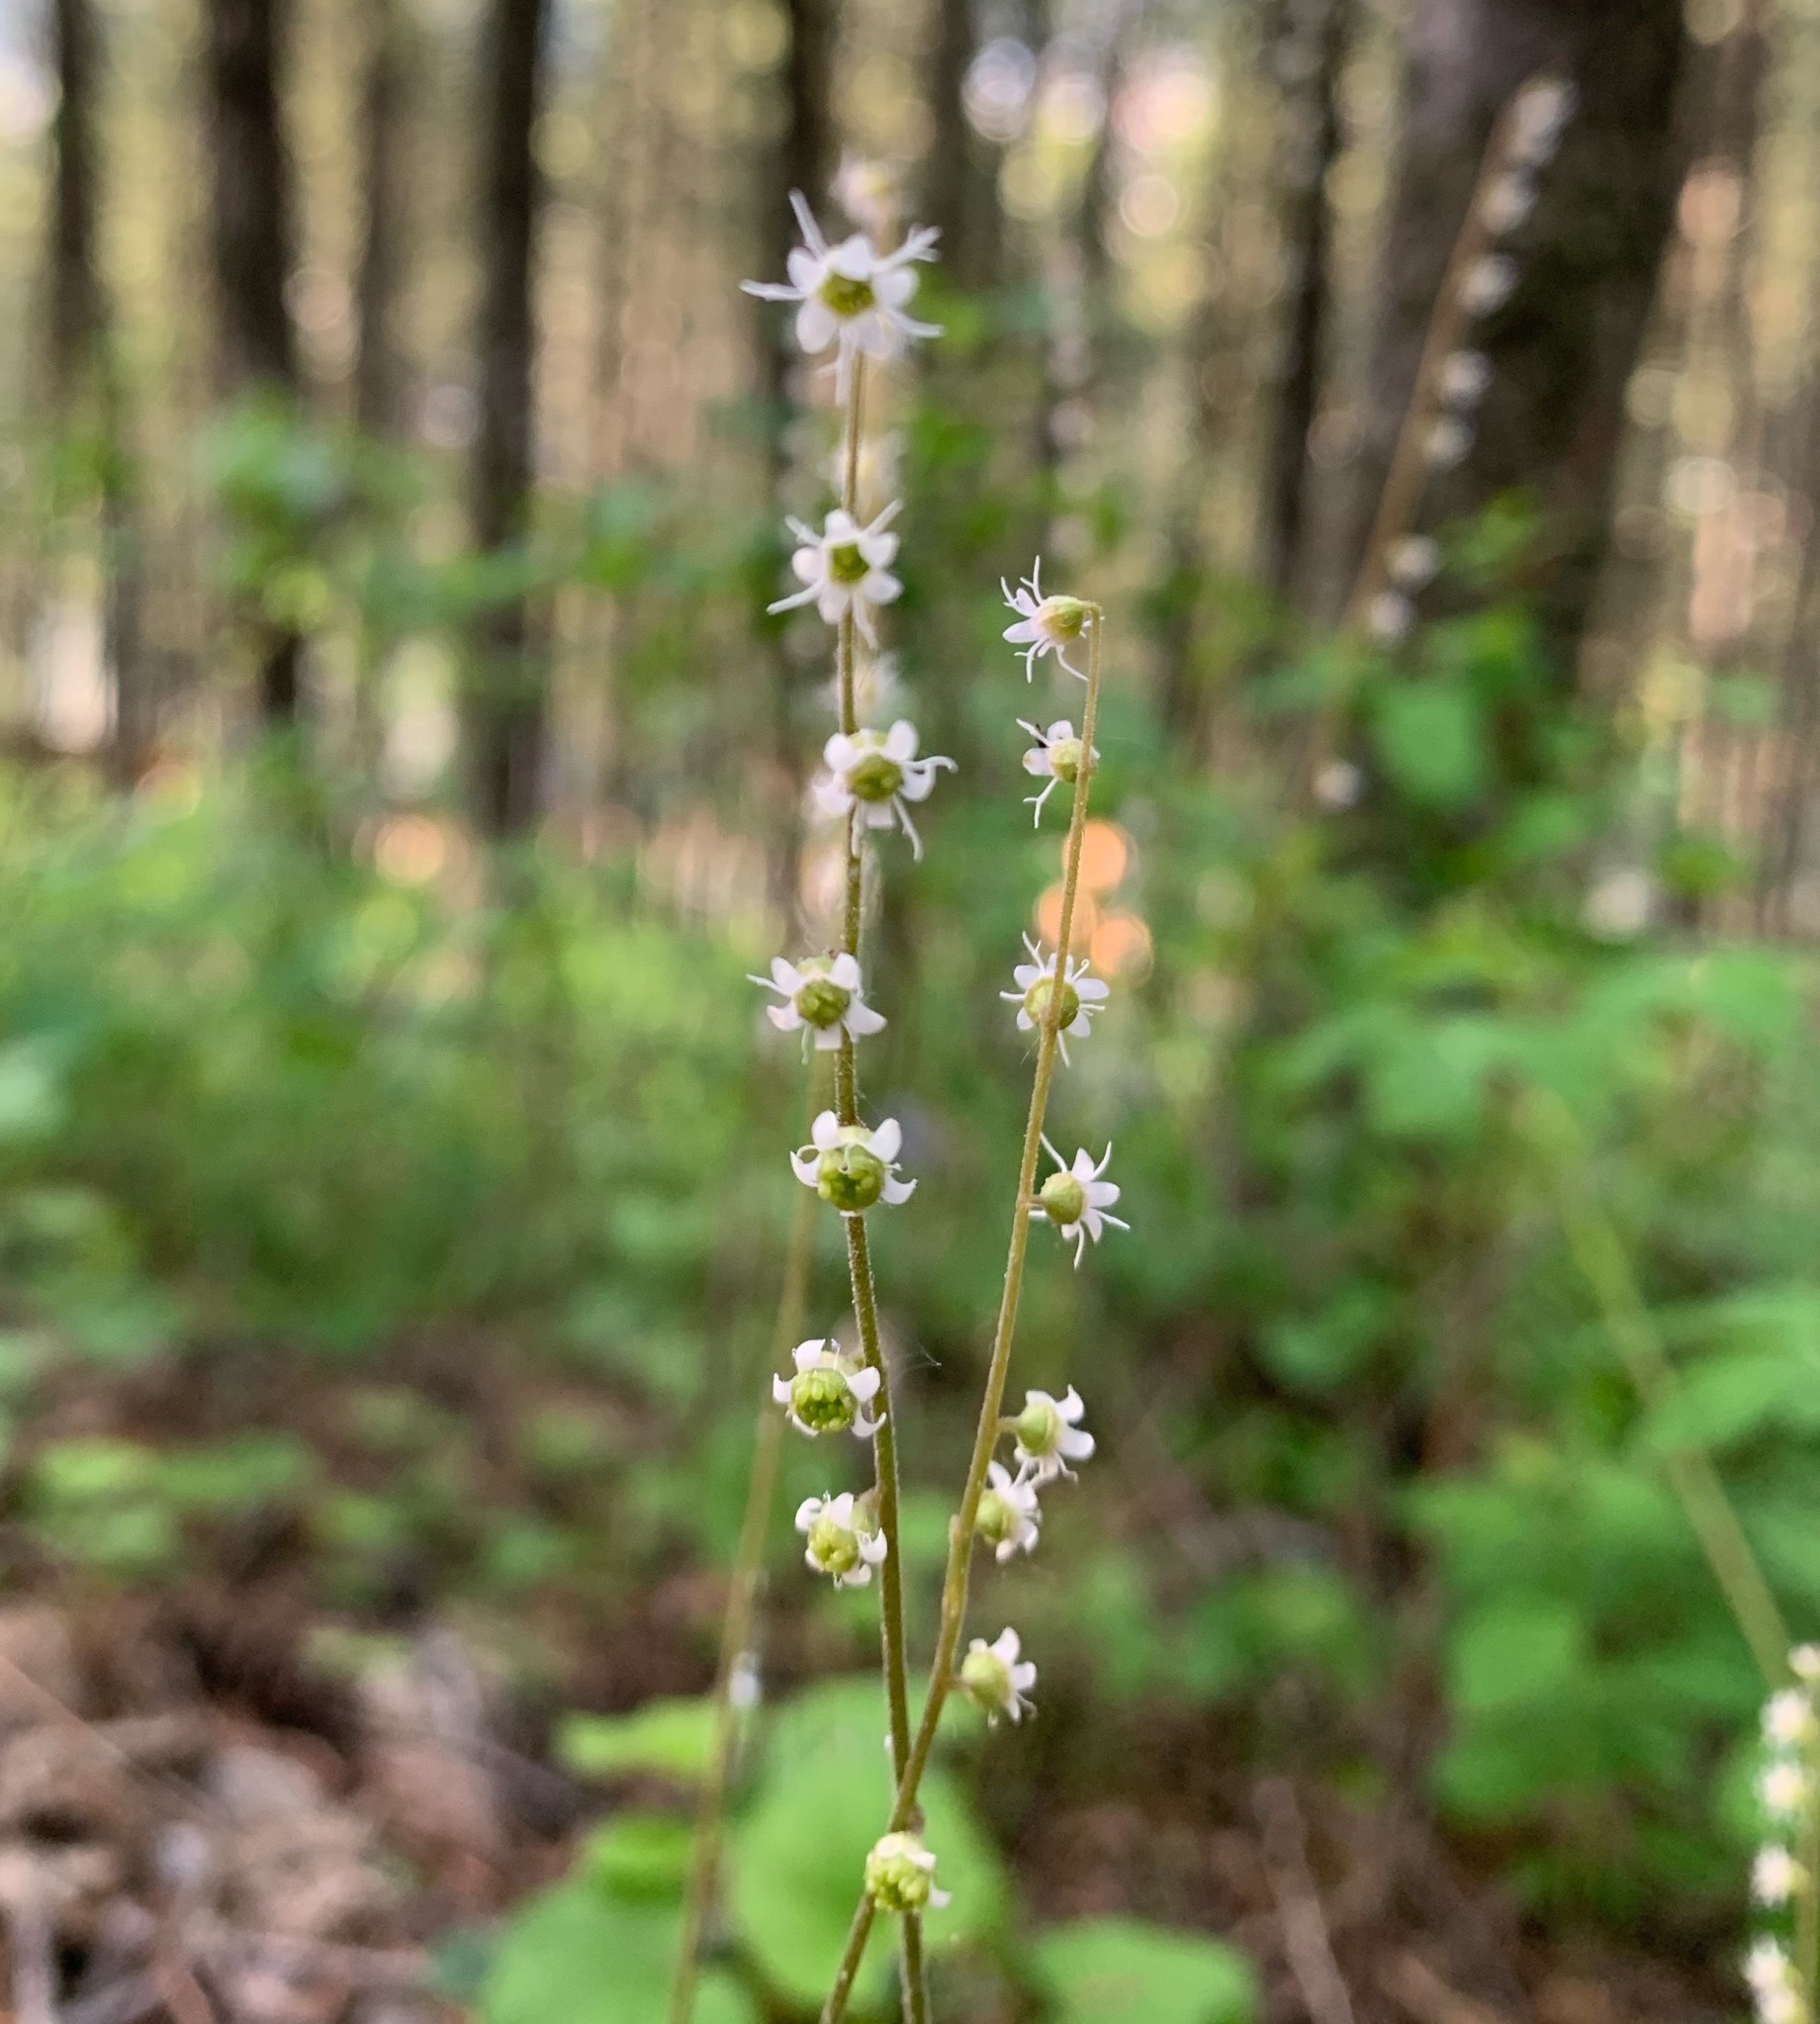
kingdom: Plantae
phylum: Tracheophyta
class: Magnoliopsida
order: Saxifragales
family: Saxifragaceae
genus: Ozomelis
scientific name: Ozomelis stauropetala
